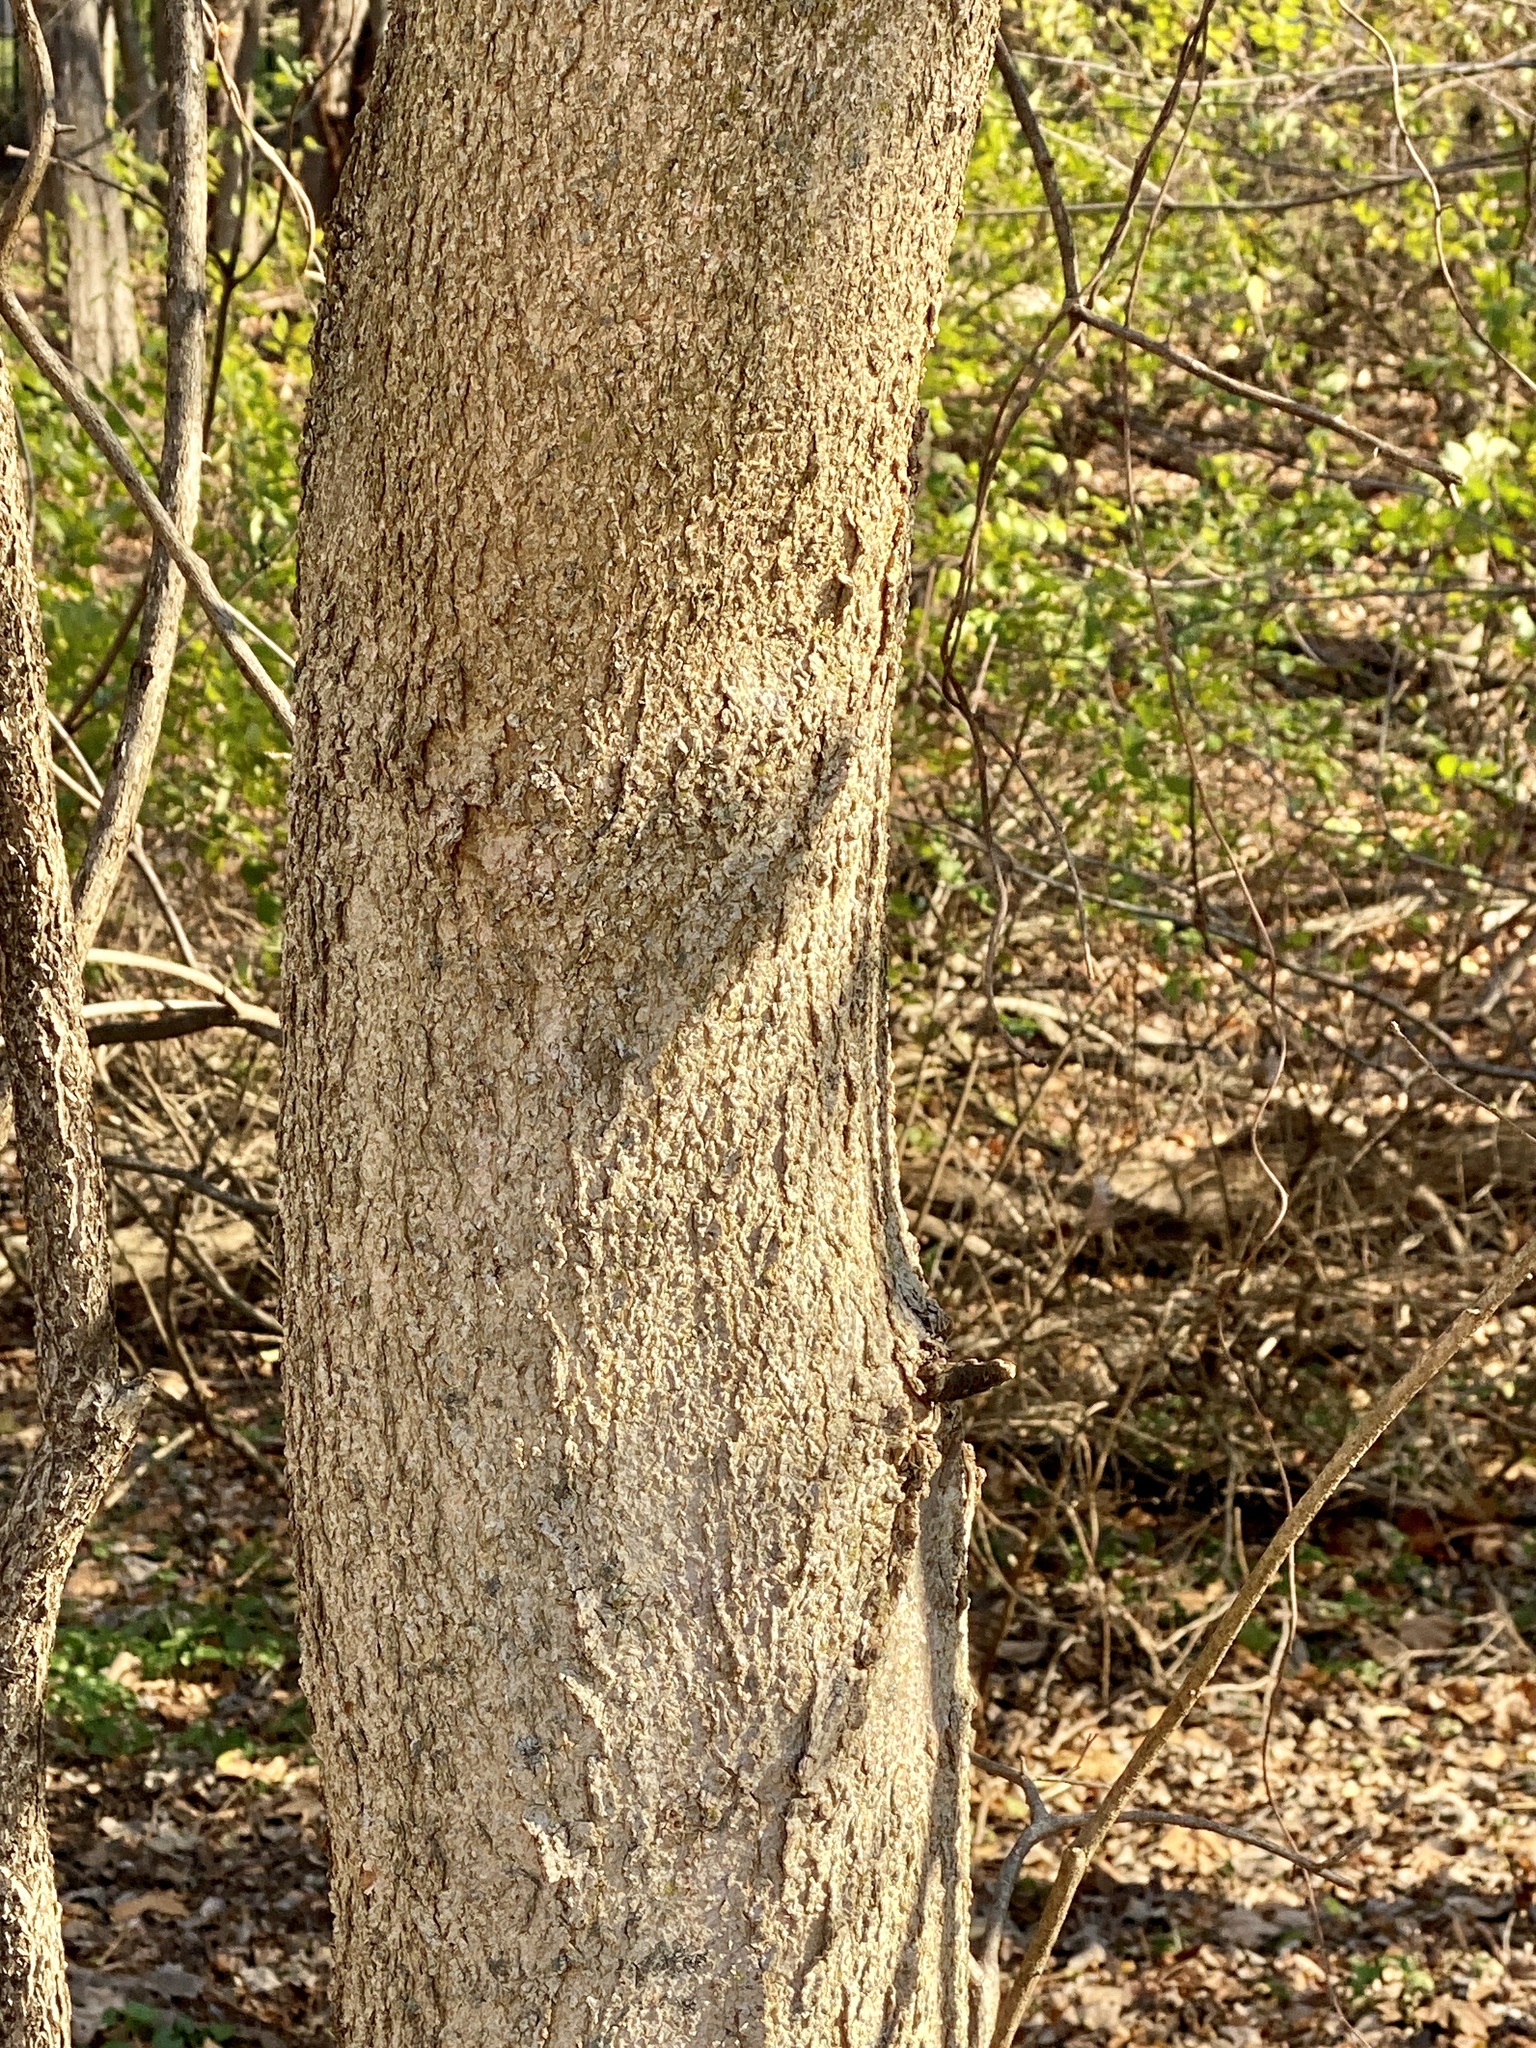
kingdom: Plantae
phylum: Tracheophyta
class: Magnoliopsida
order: Sapindales
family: Sapindaceae
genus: Aesculus
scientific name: Aesculus flava
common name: Yellow buckeye
